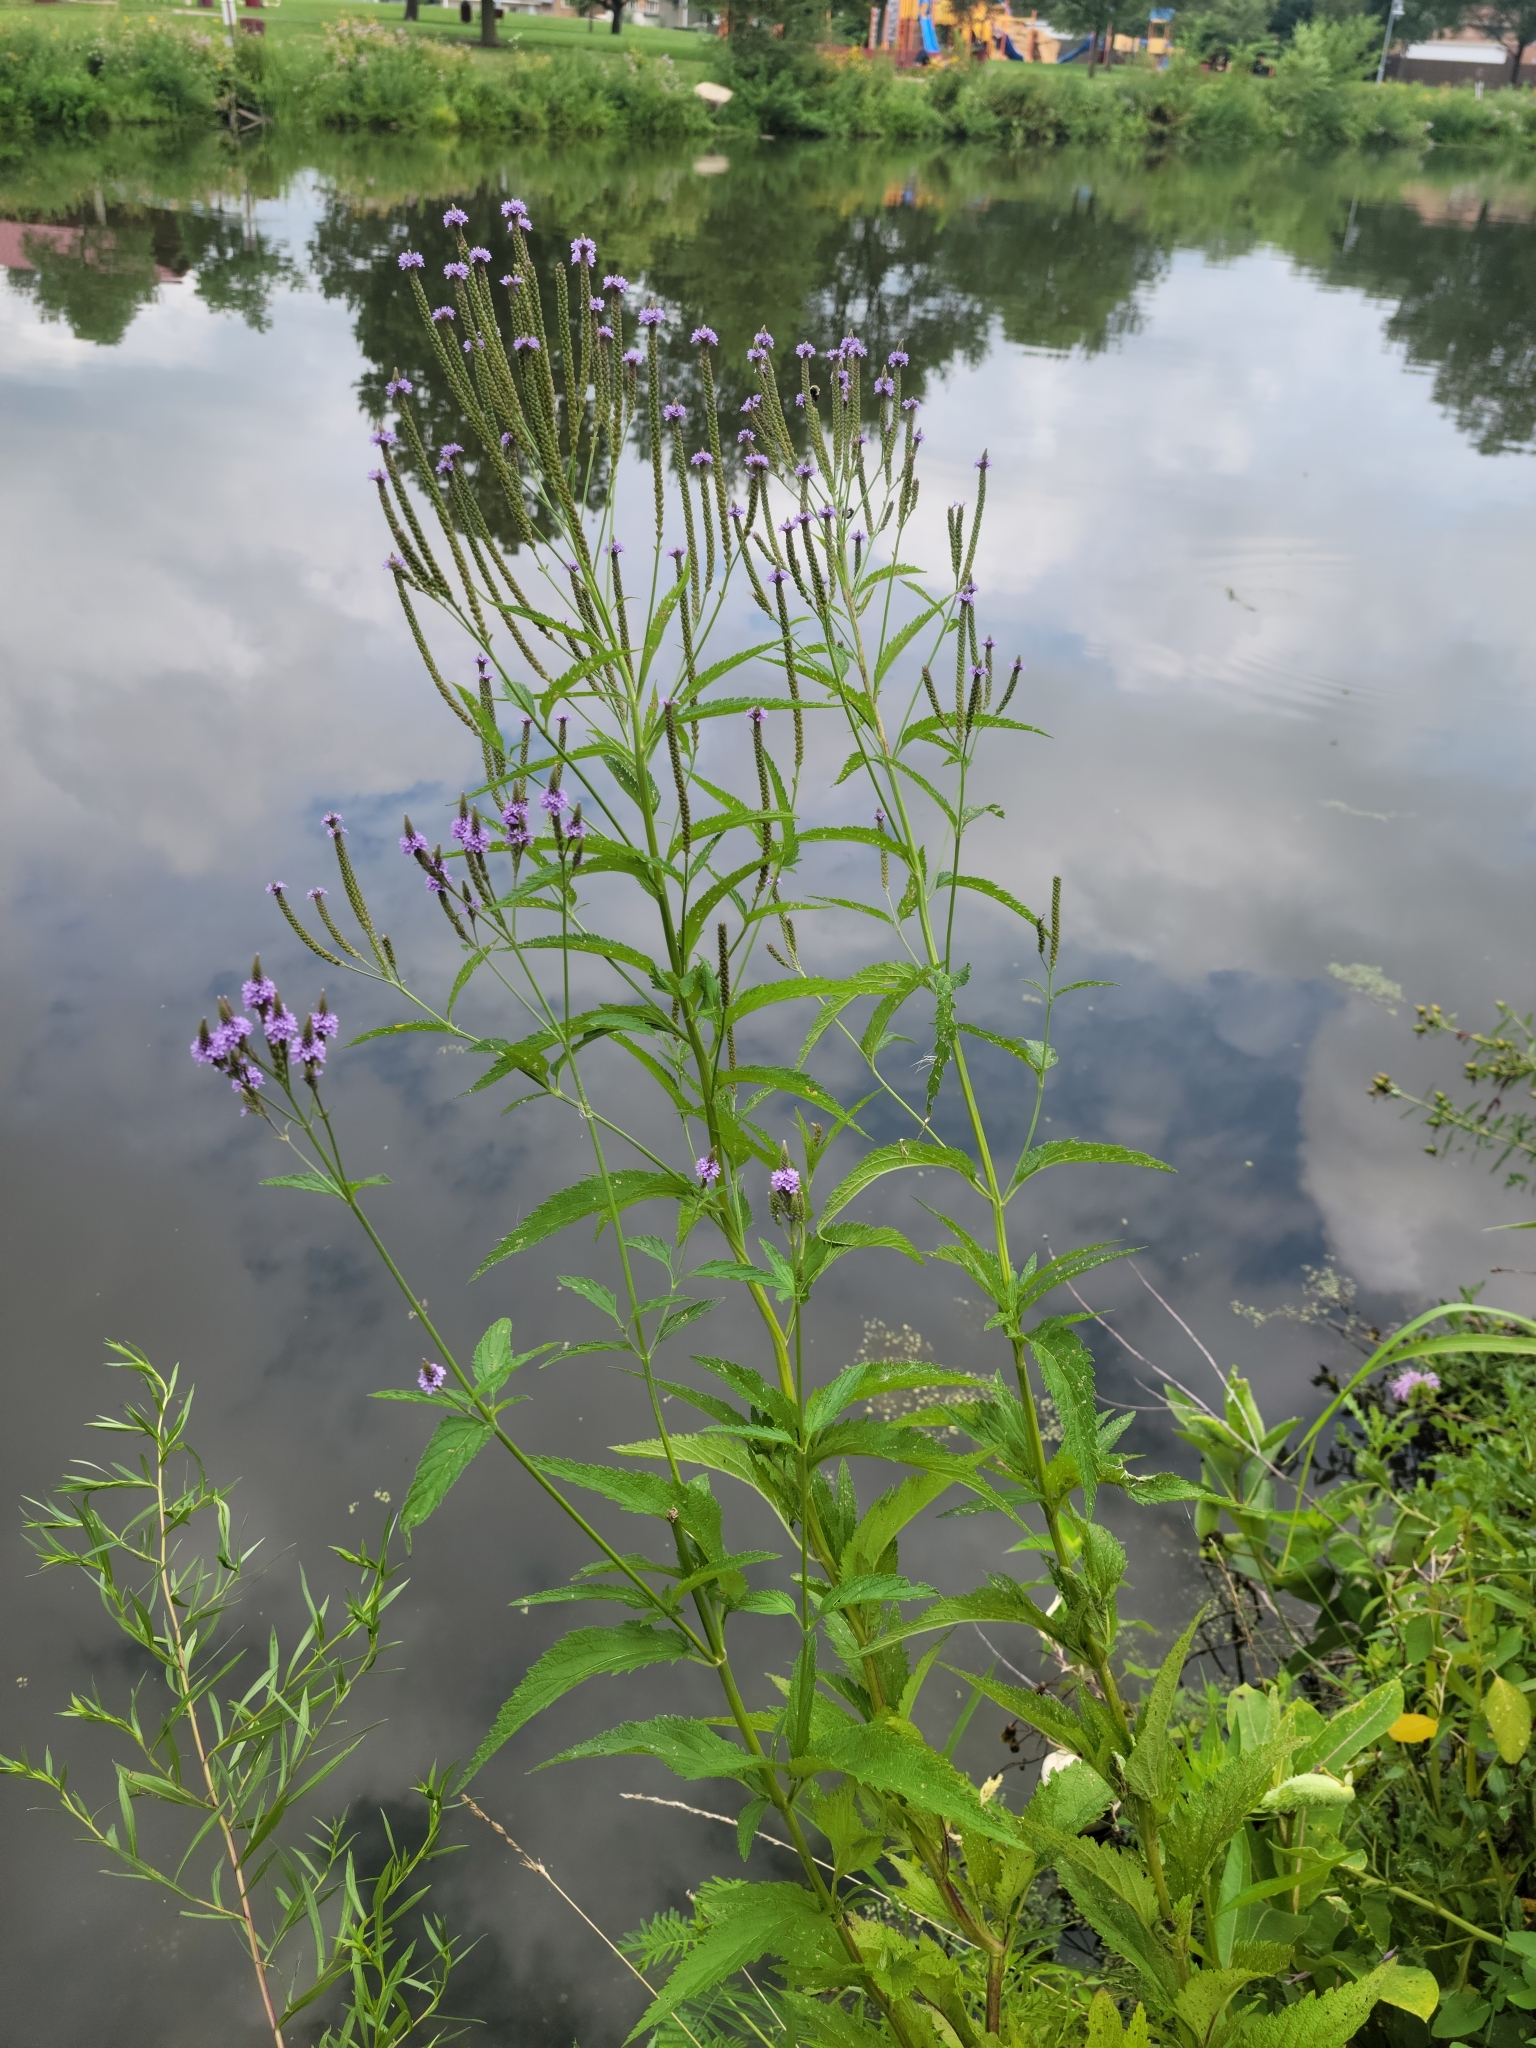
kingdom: Plantae
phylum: Tracheophyta
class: Magnoliopsida
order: Lamiales
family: Verbenaceae
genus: Verbena
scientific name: Verbena hastata
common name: American blue vervain
